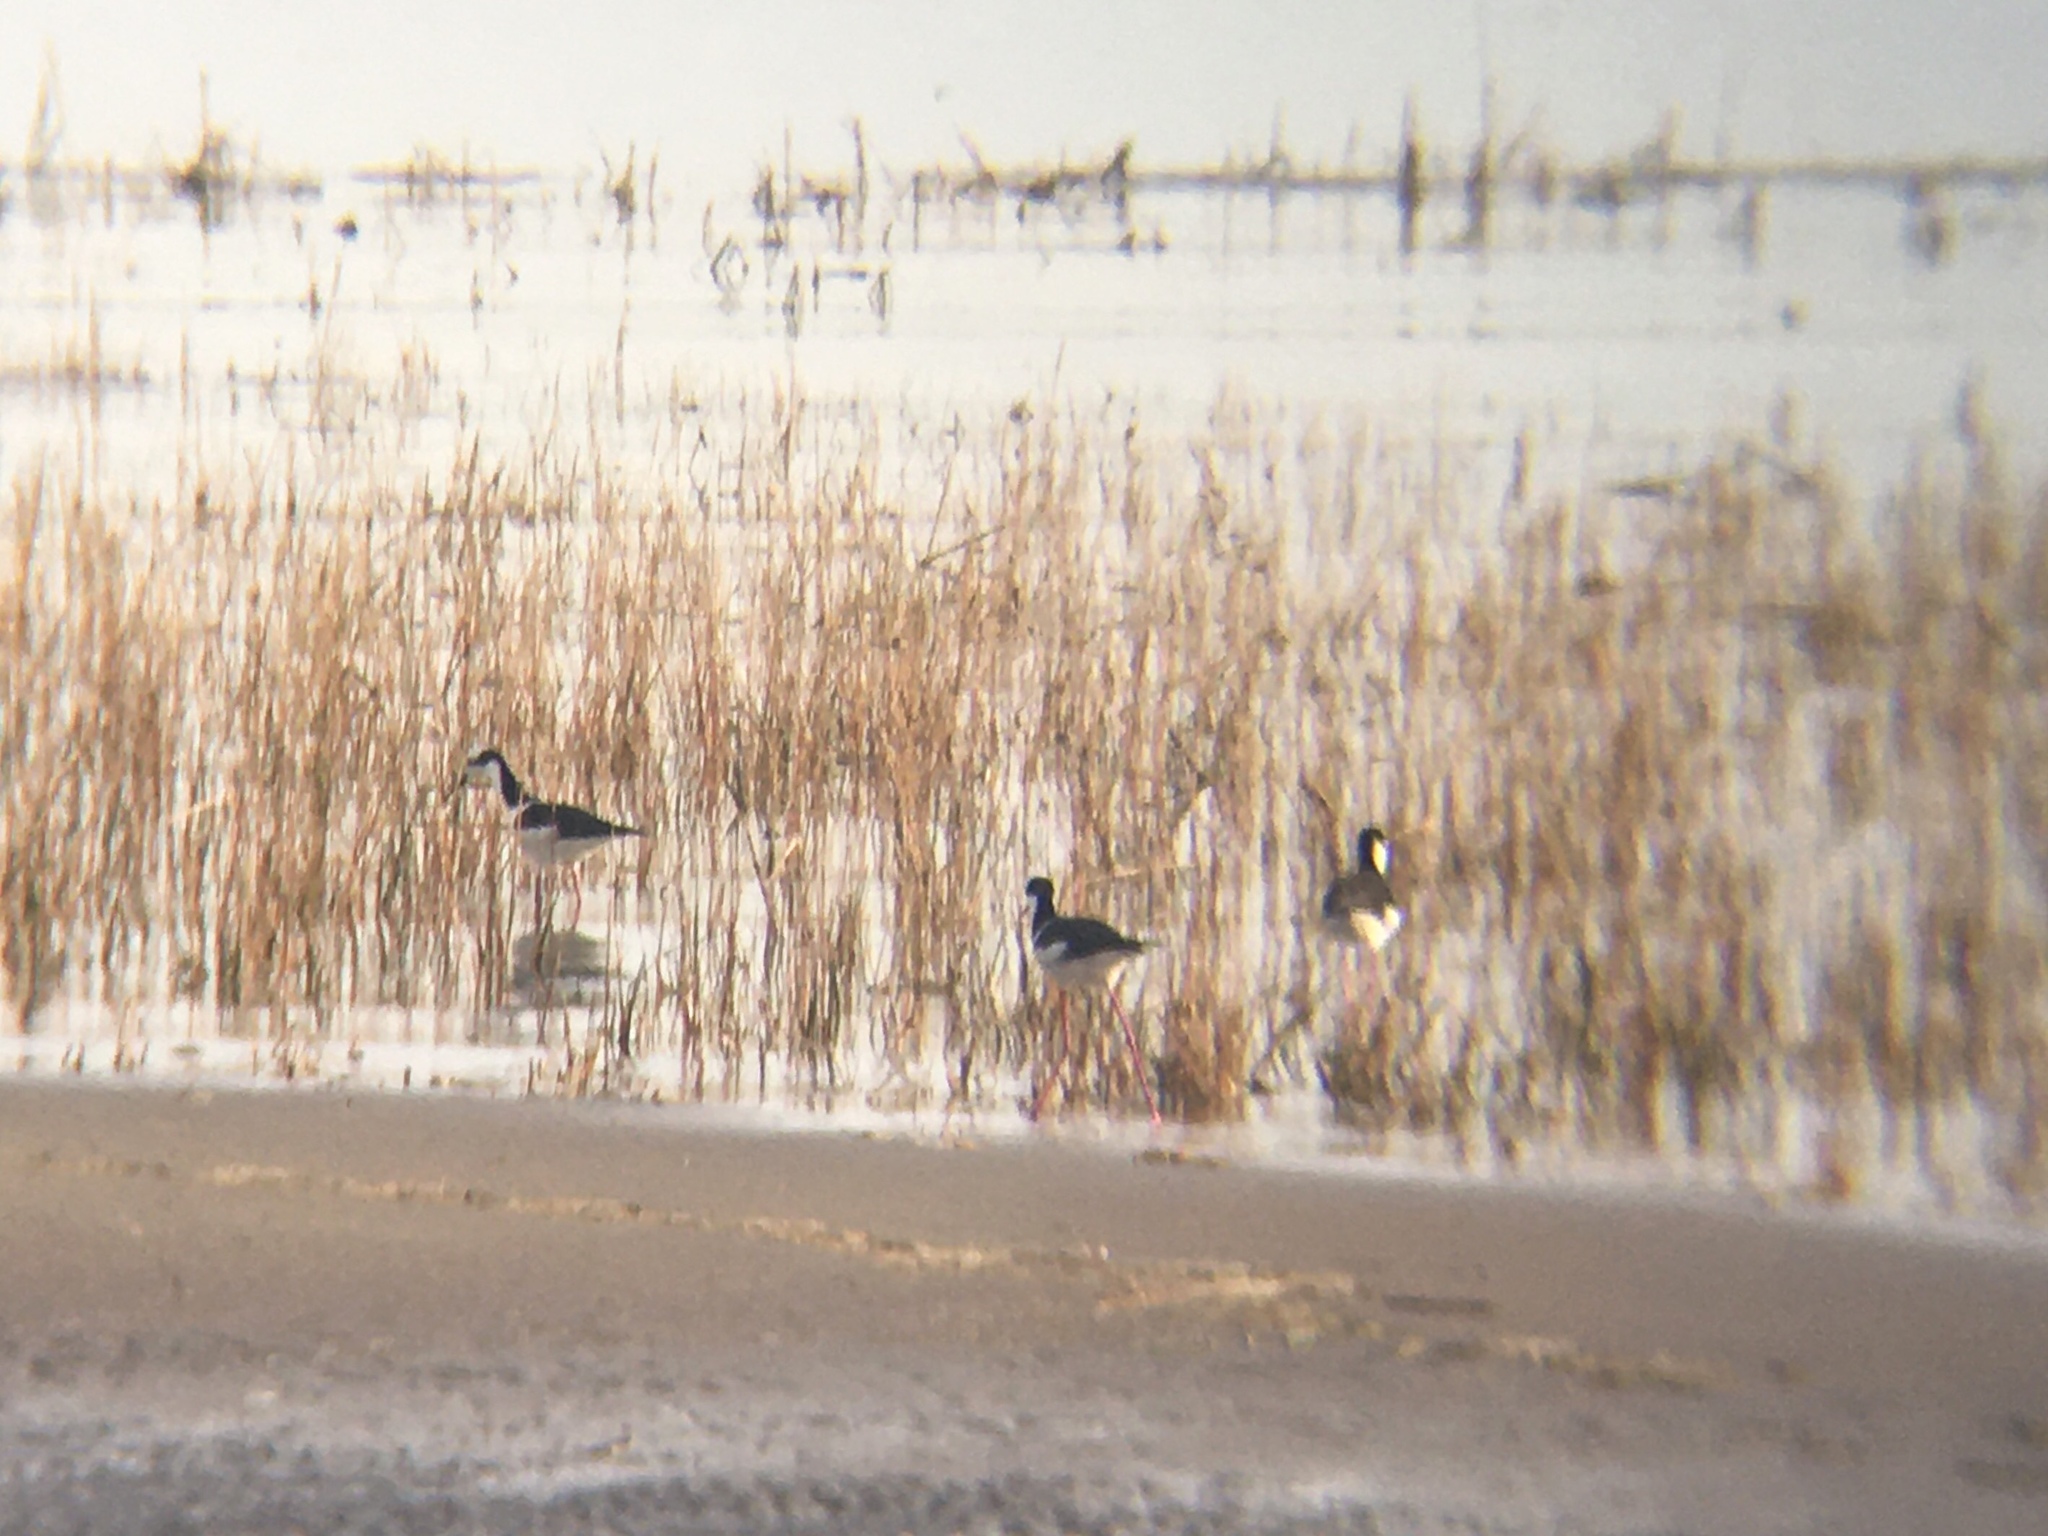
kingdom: Animalia
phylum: Chordata
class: Aves
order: Charadriiformes
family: Recurvirostridae
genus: Himantopus
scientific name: Himantopus mexicanus
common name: Black-necked stilt
